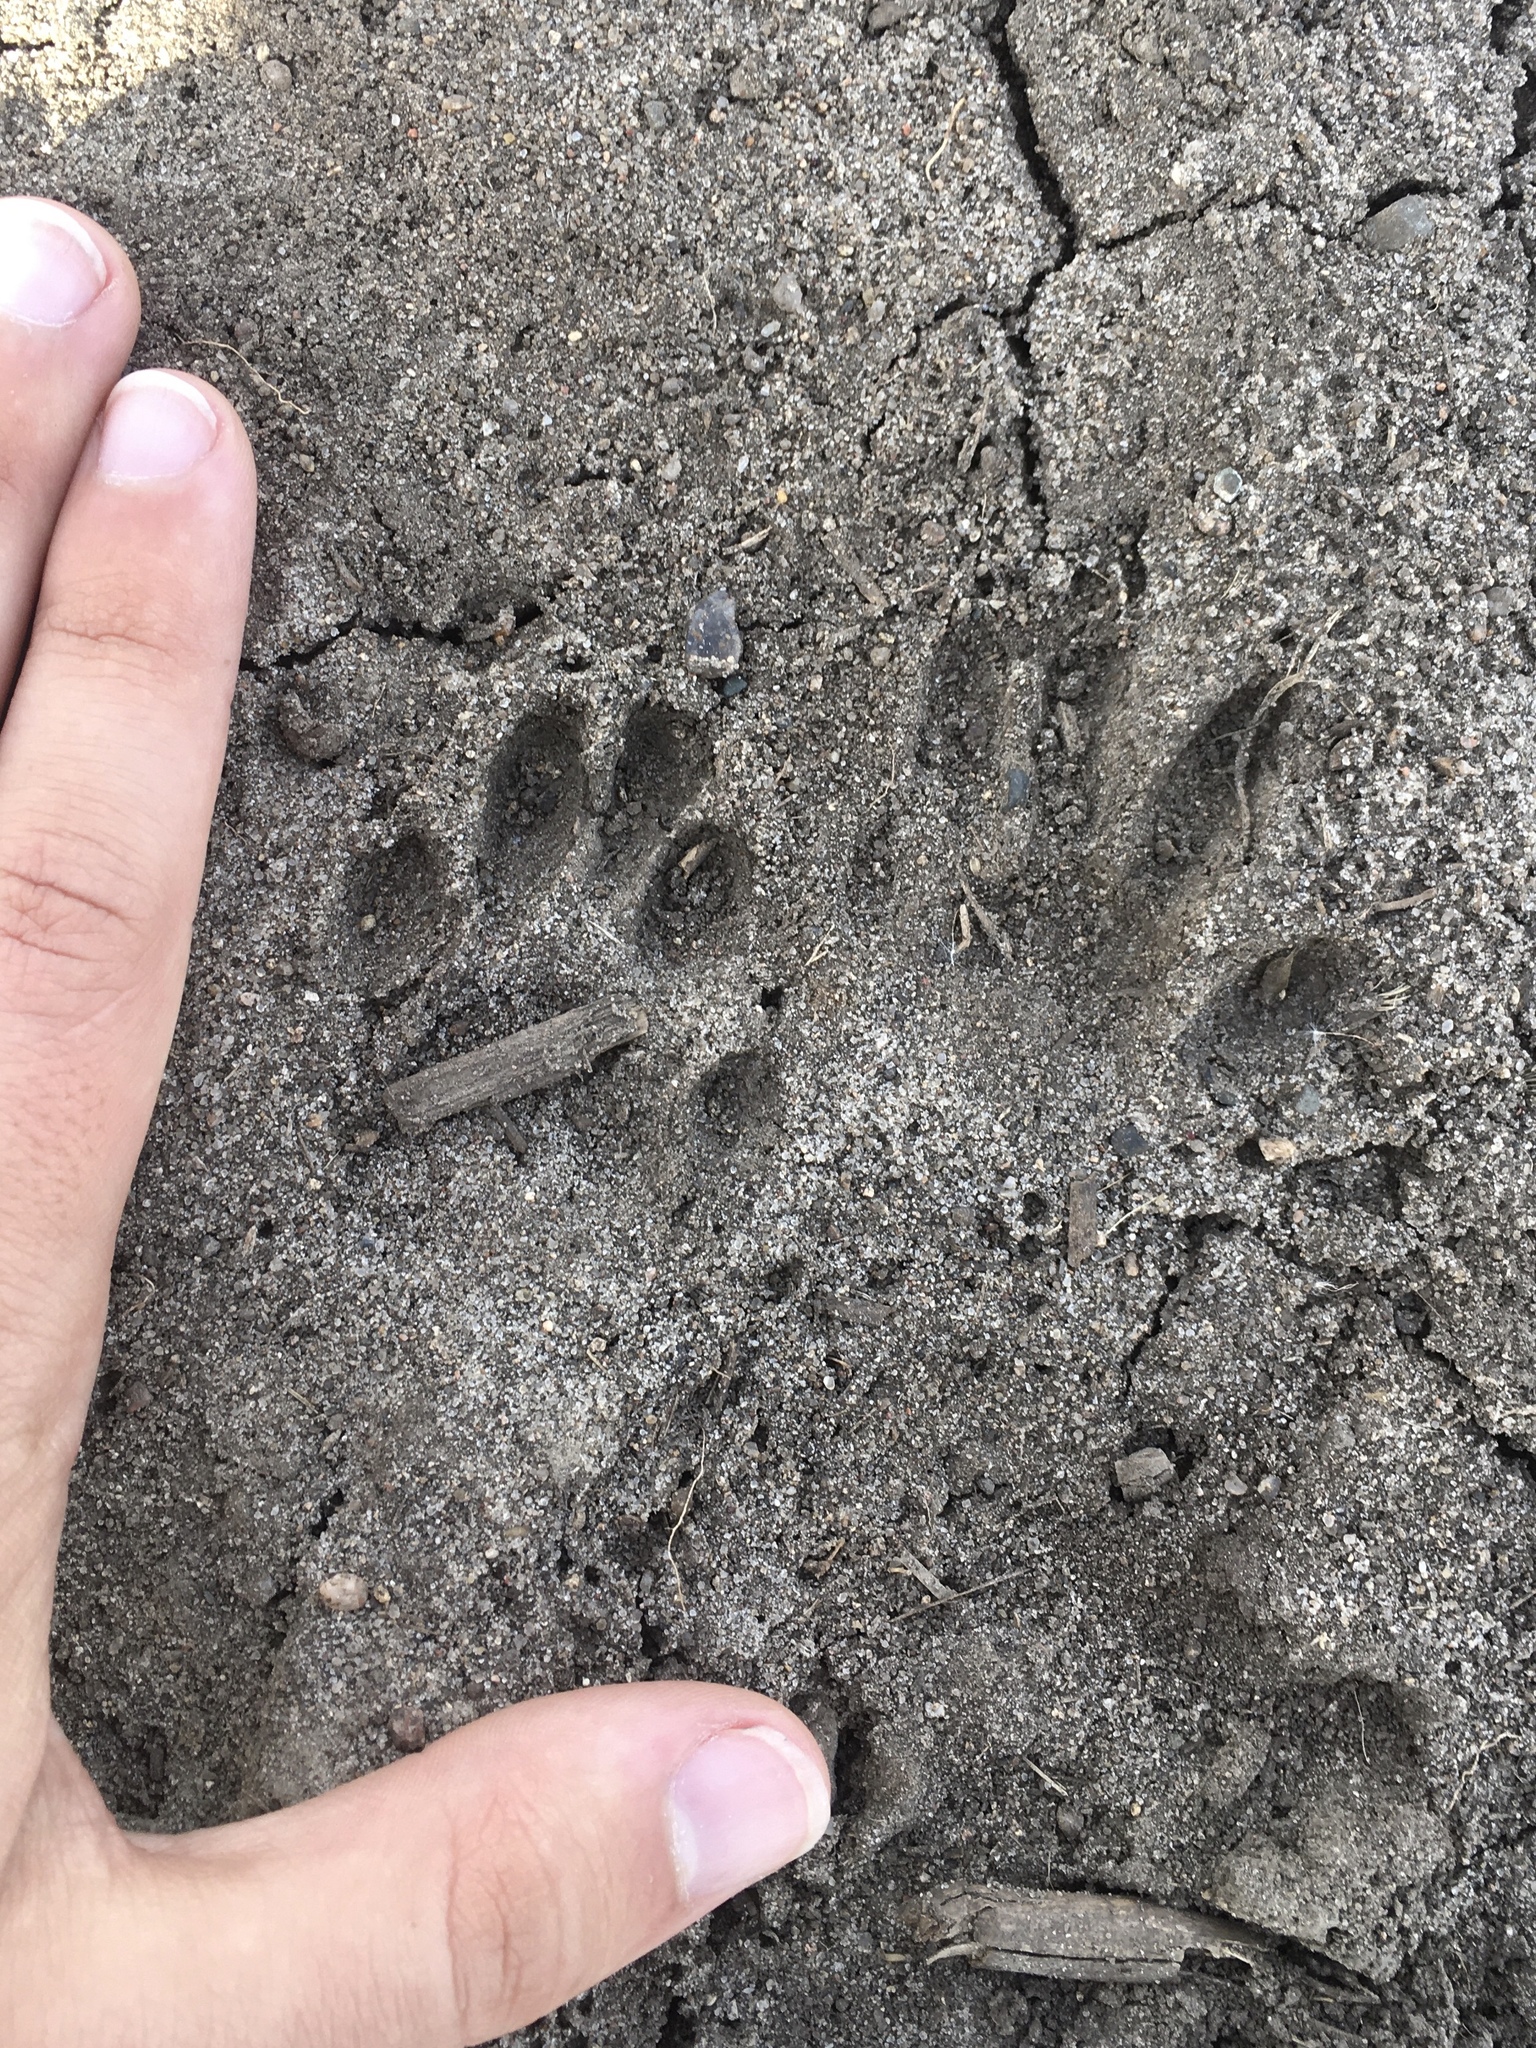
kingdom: Animalia
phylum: Chordata
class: Mammalia
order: Carnivora
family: Procyonidae
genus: Procyon
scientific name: Procyon lotor
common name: Raccoon
